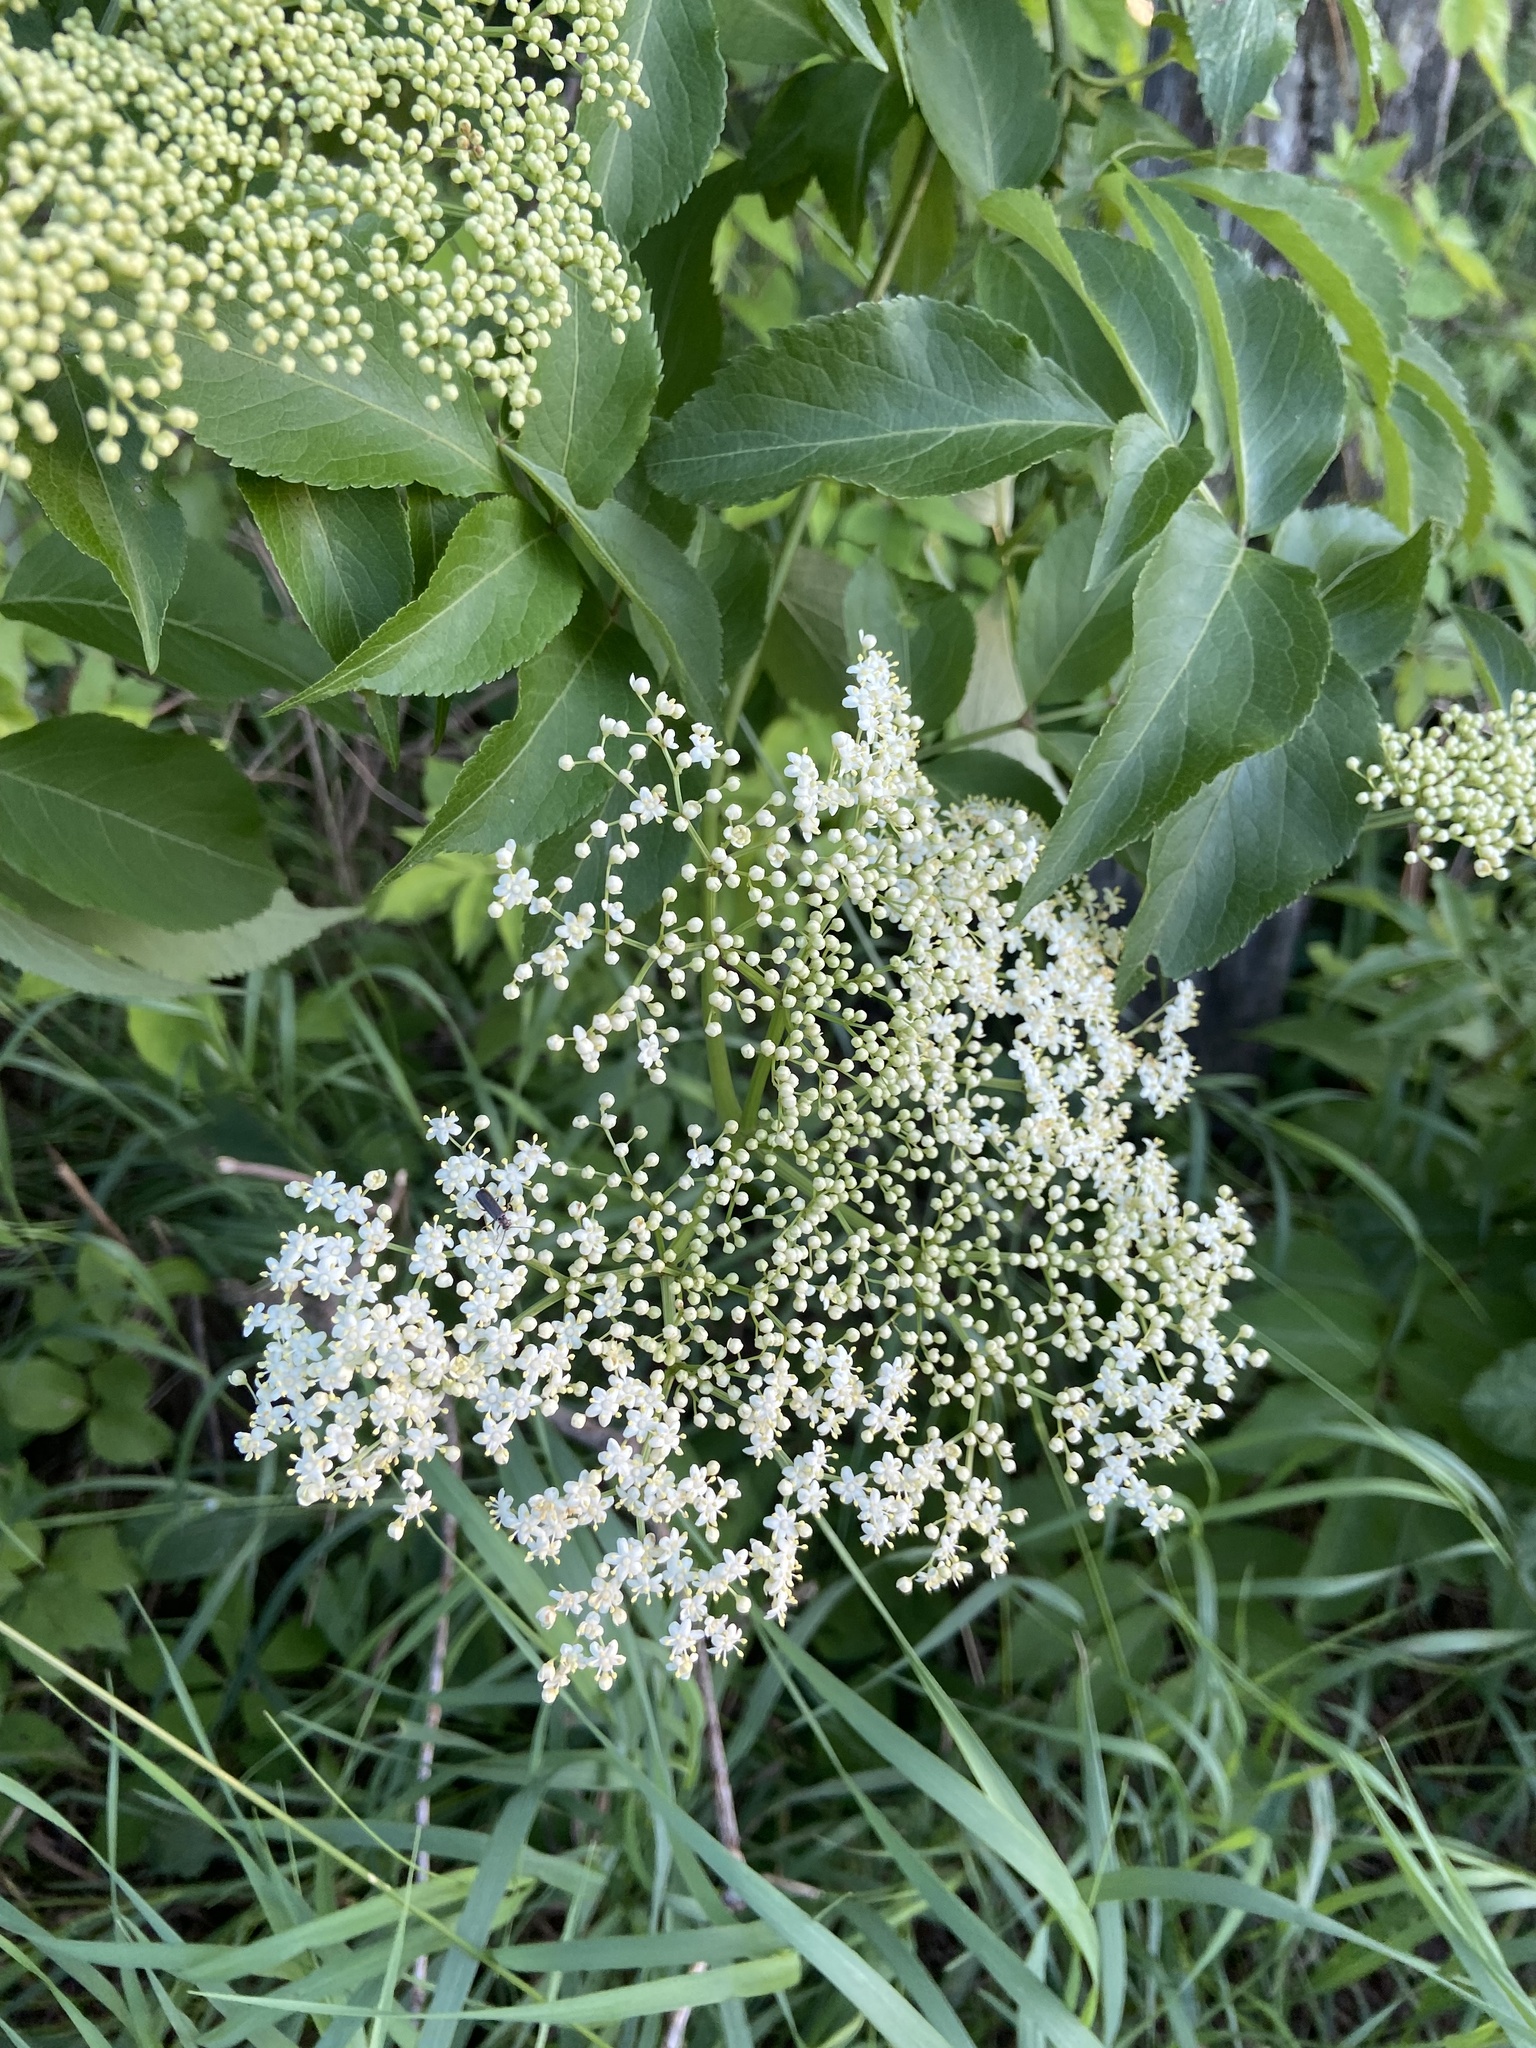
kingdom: Plantae
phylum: Tracheophyta
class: Magnoliopsida
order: Dipsacales
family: Viburnaceae
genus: Sambucus
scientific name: Sambucus canadensis
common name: American elder
